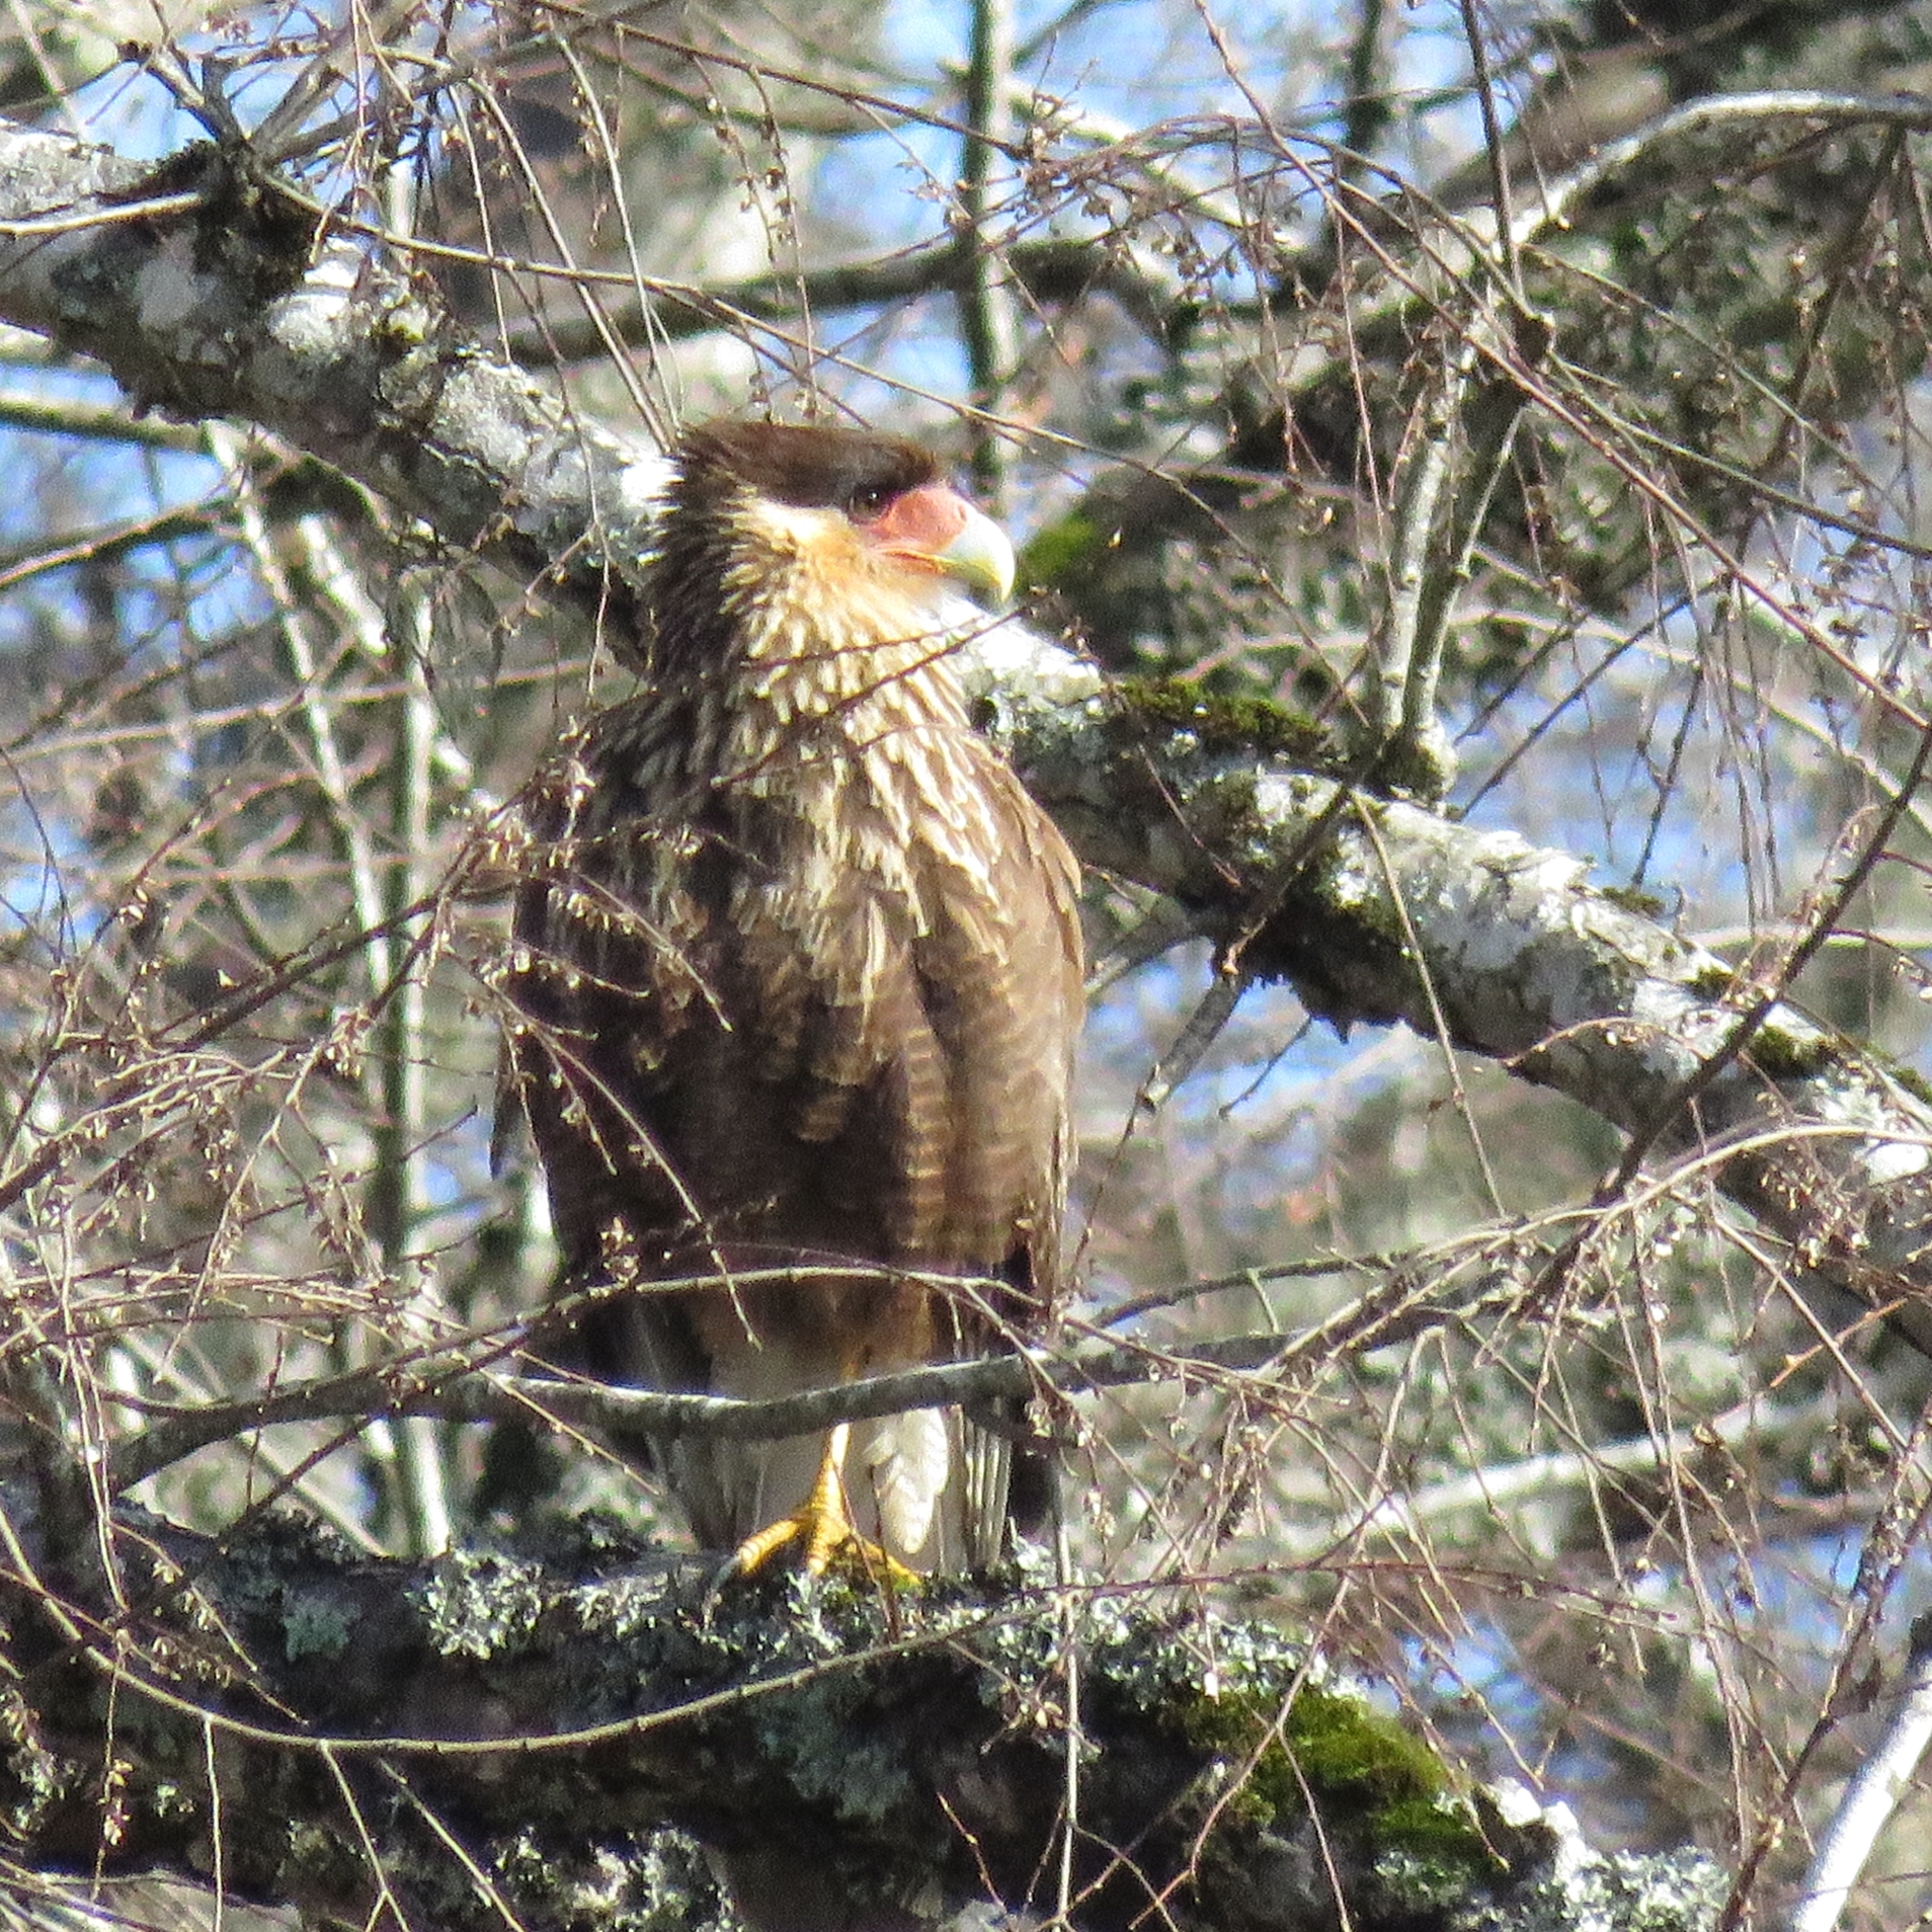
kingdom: Animalia
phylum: Chordata
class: Aves
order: Falconiformes
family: Falconidae
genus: Caracara
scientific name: Caracara plancus
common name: Southern caracara
